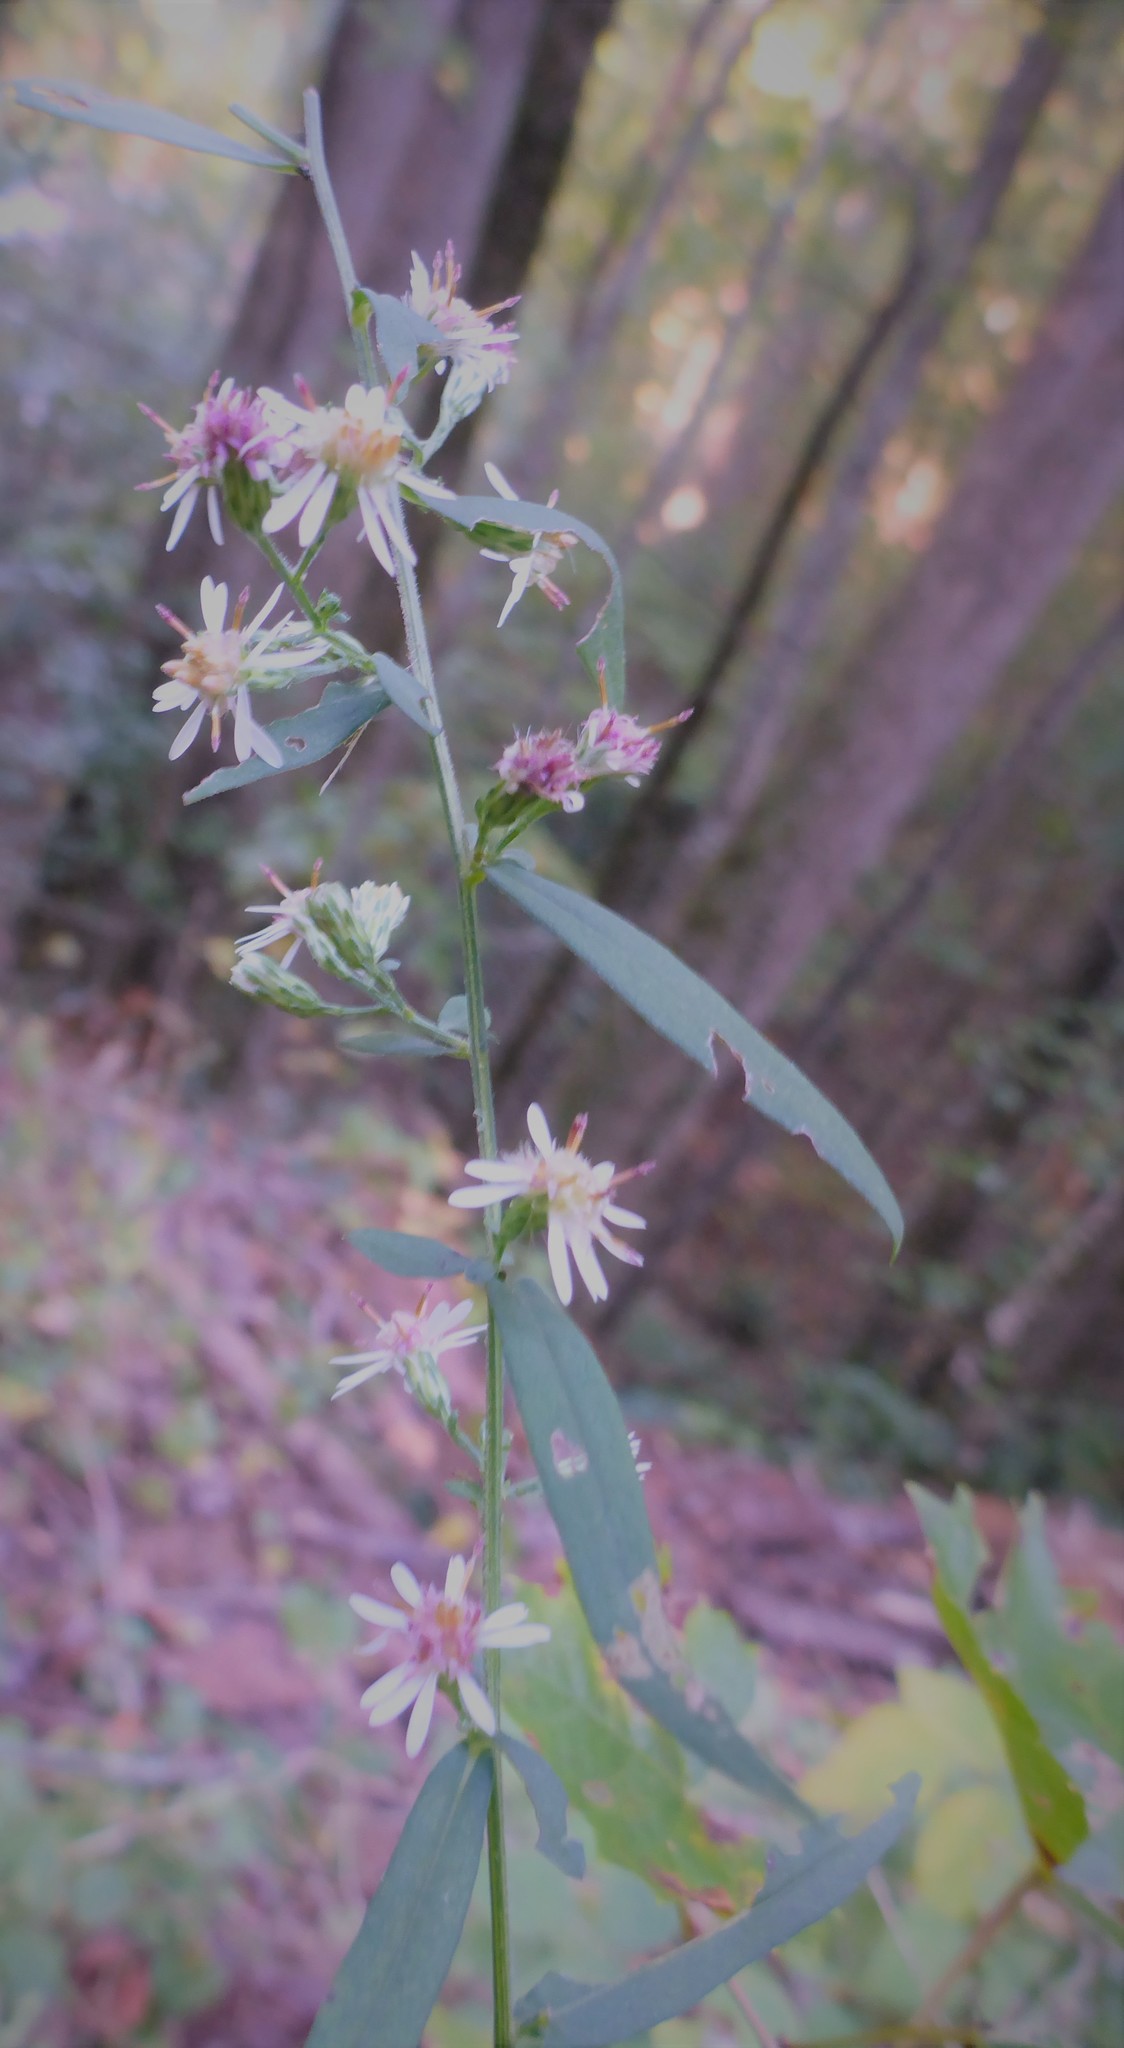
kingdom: Plantae
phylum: Tracheophyta
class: Magnoliopsida
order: Asterales
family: Asteraceae
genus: Symphyotrichum
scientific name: Symphyotrichum lateriflorum
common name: Calico aster
